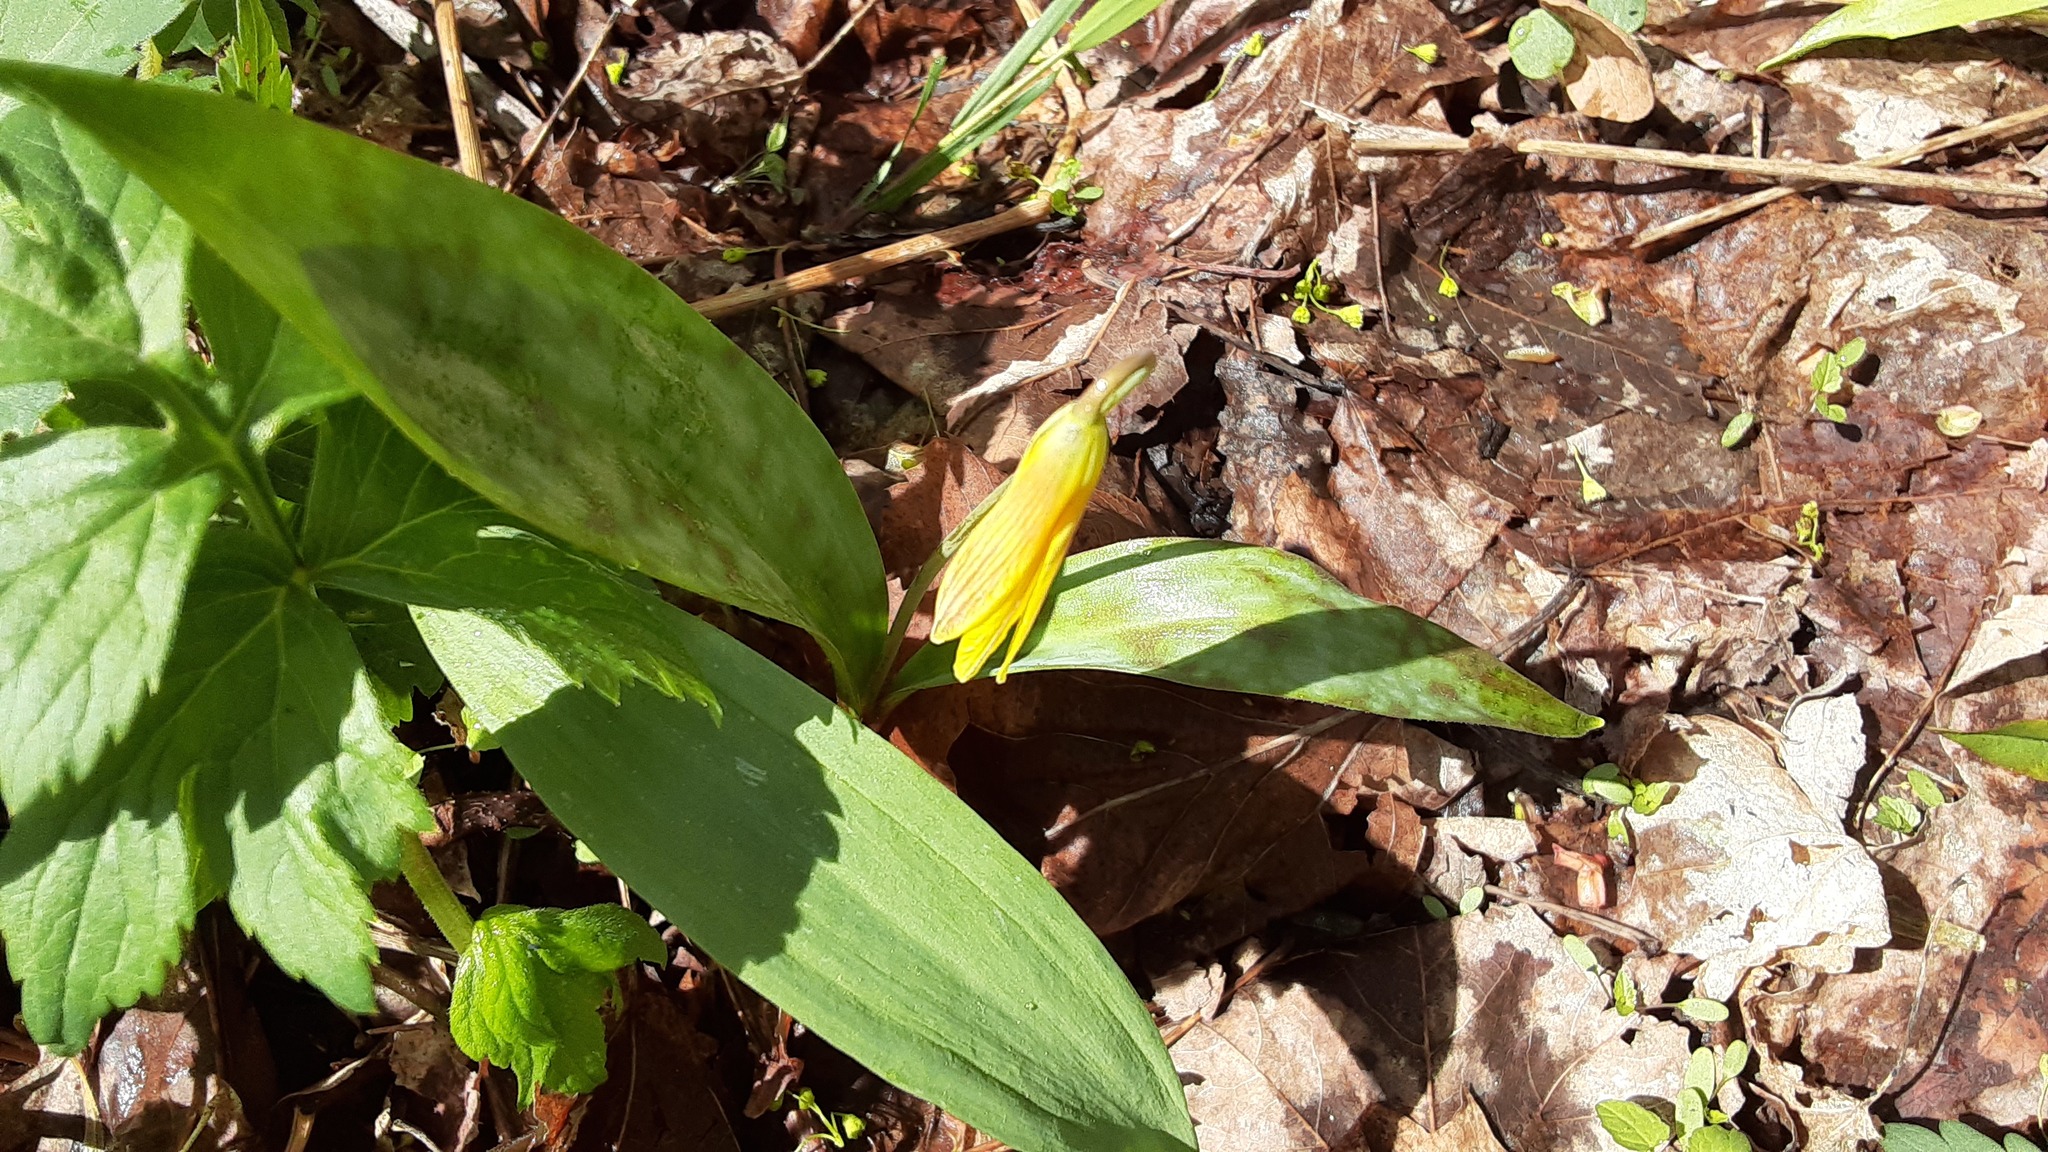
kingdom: Plantae
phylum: Tracheophyta
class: Liliopsida
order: Liliales
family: Liliaceae
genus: Erythronium
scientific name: Erythronium americanum
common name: Yellow adder's-tongue
